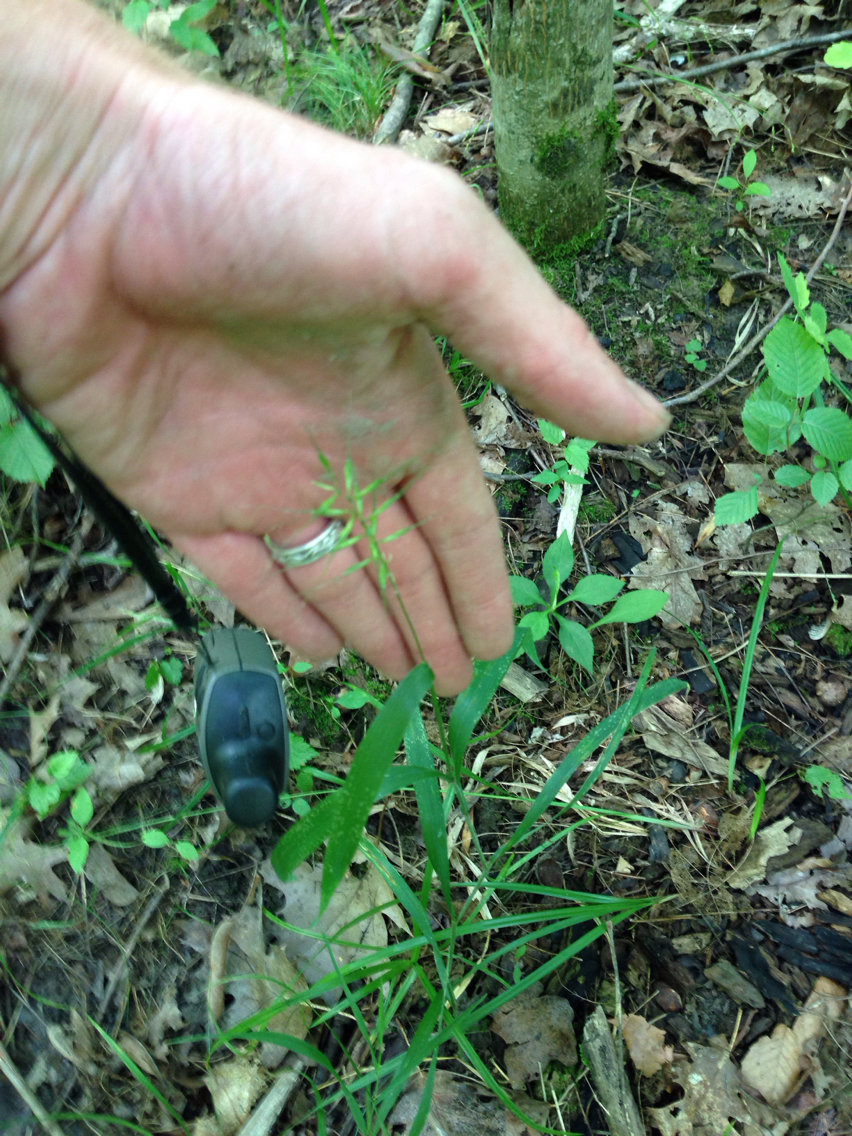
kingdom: Plantae
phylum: Tracheophyta
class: Liliopsida
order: Poales
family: Poaceae
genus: Elymus
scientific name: Elymus hystrix
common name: Bottlebrush grass
